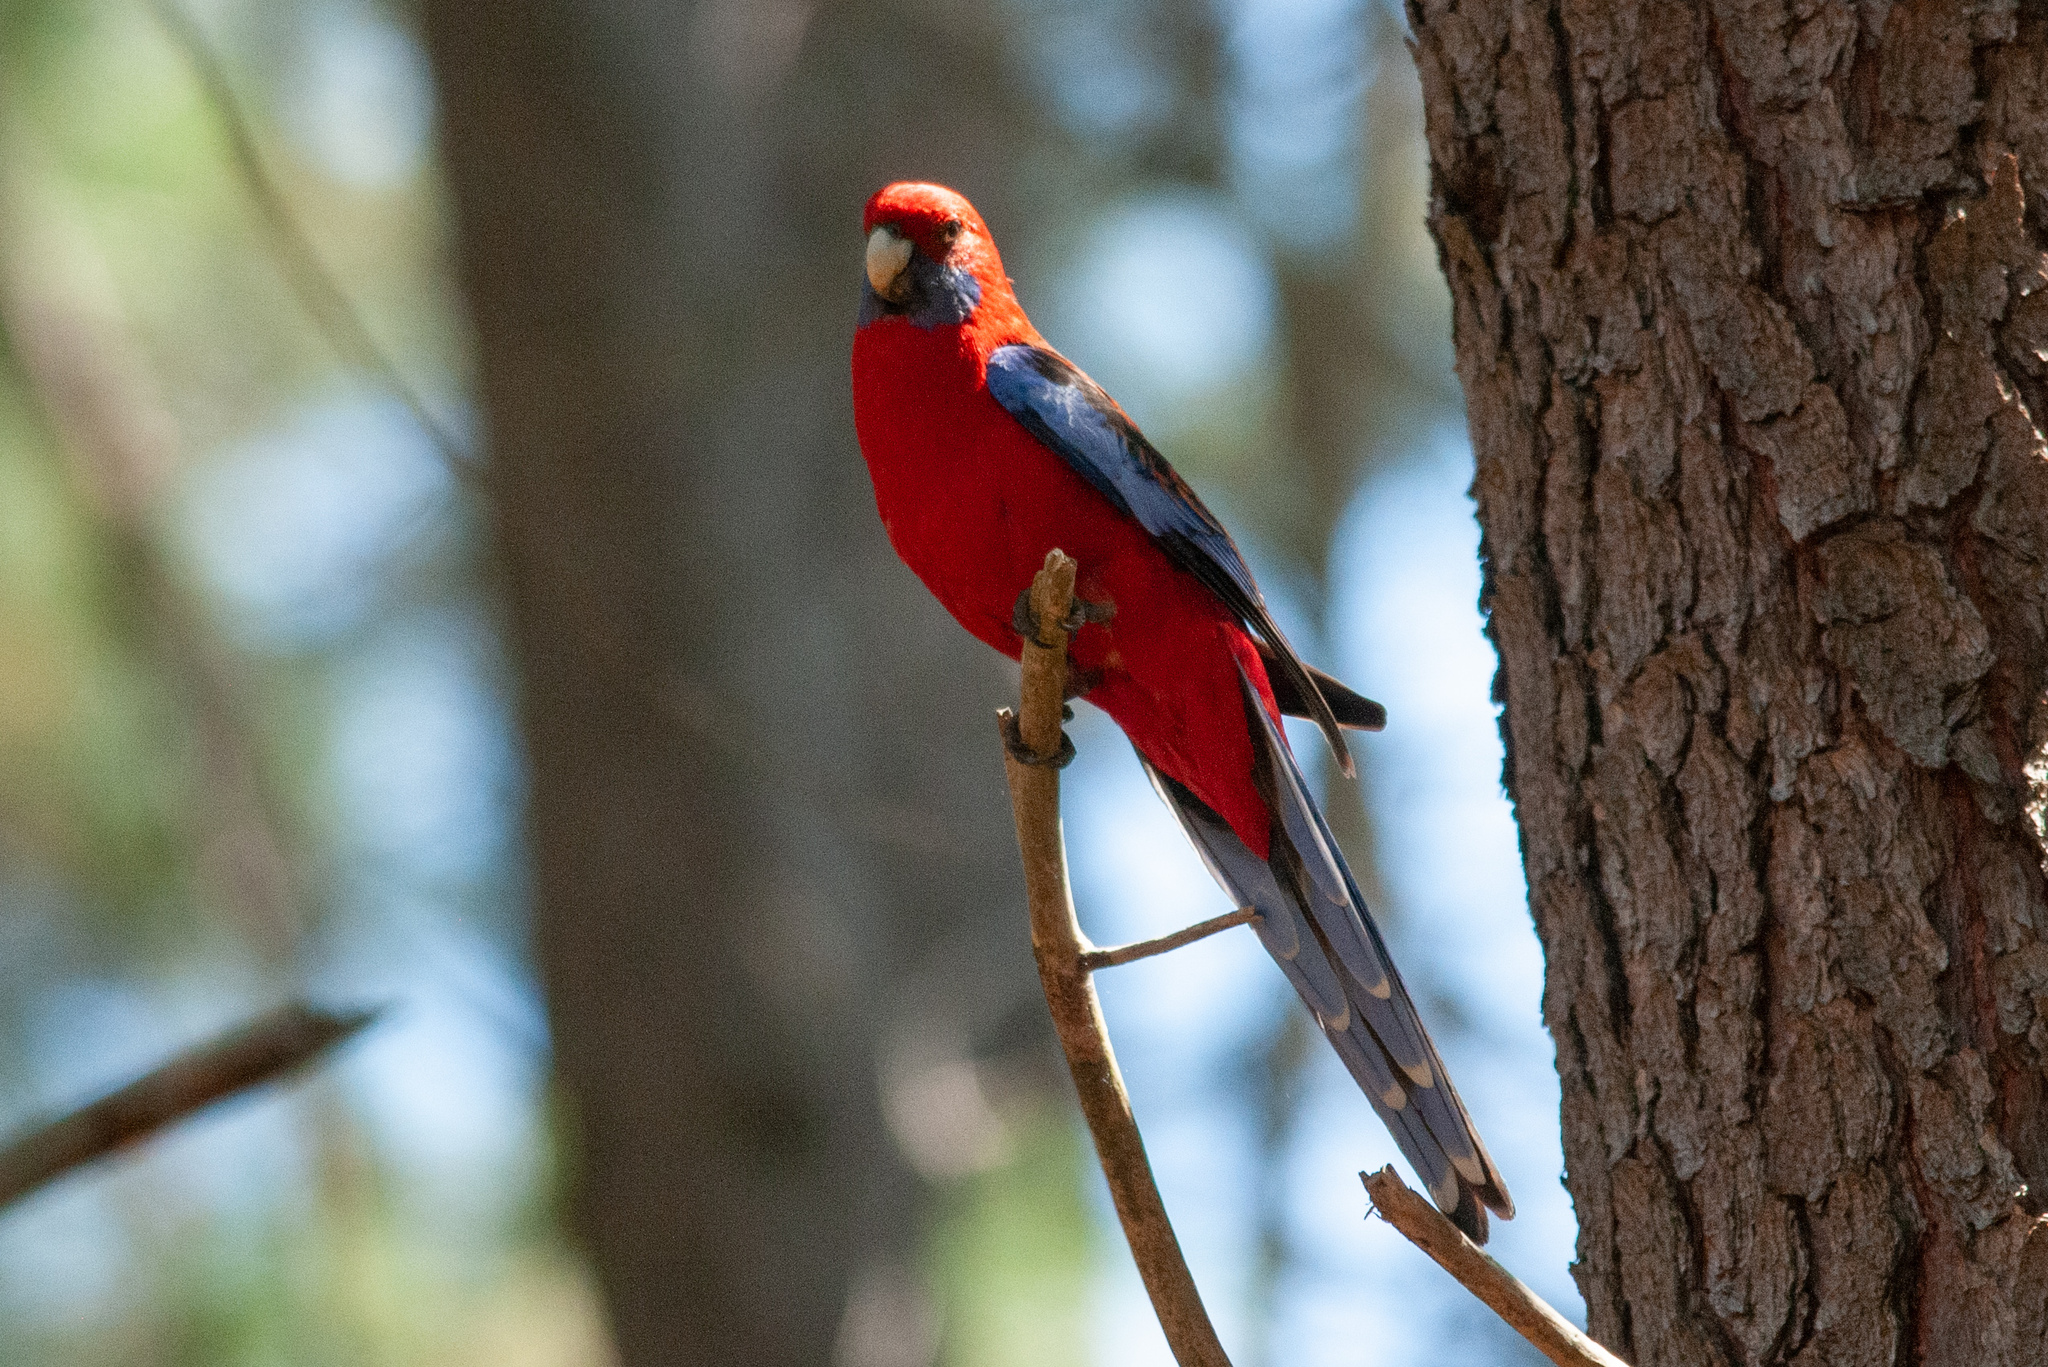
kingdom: Animalia
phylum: Chordata
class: Aves
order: Psittaciformes
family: Psittacidae
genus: Platycercus
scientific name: Platycercus elegans
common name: Crimson rosella
